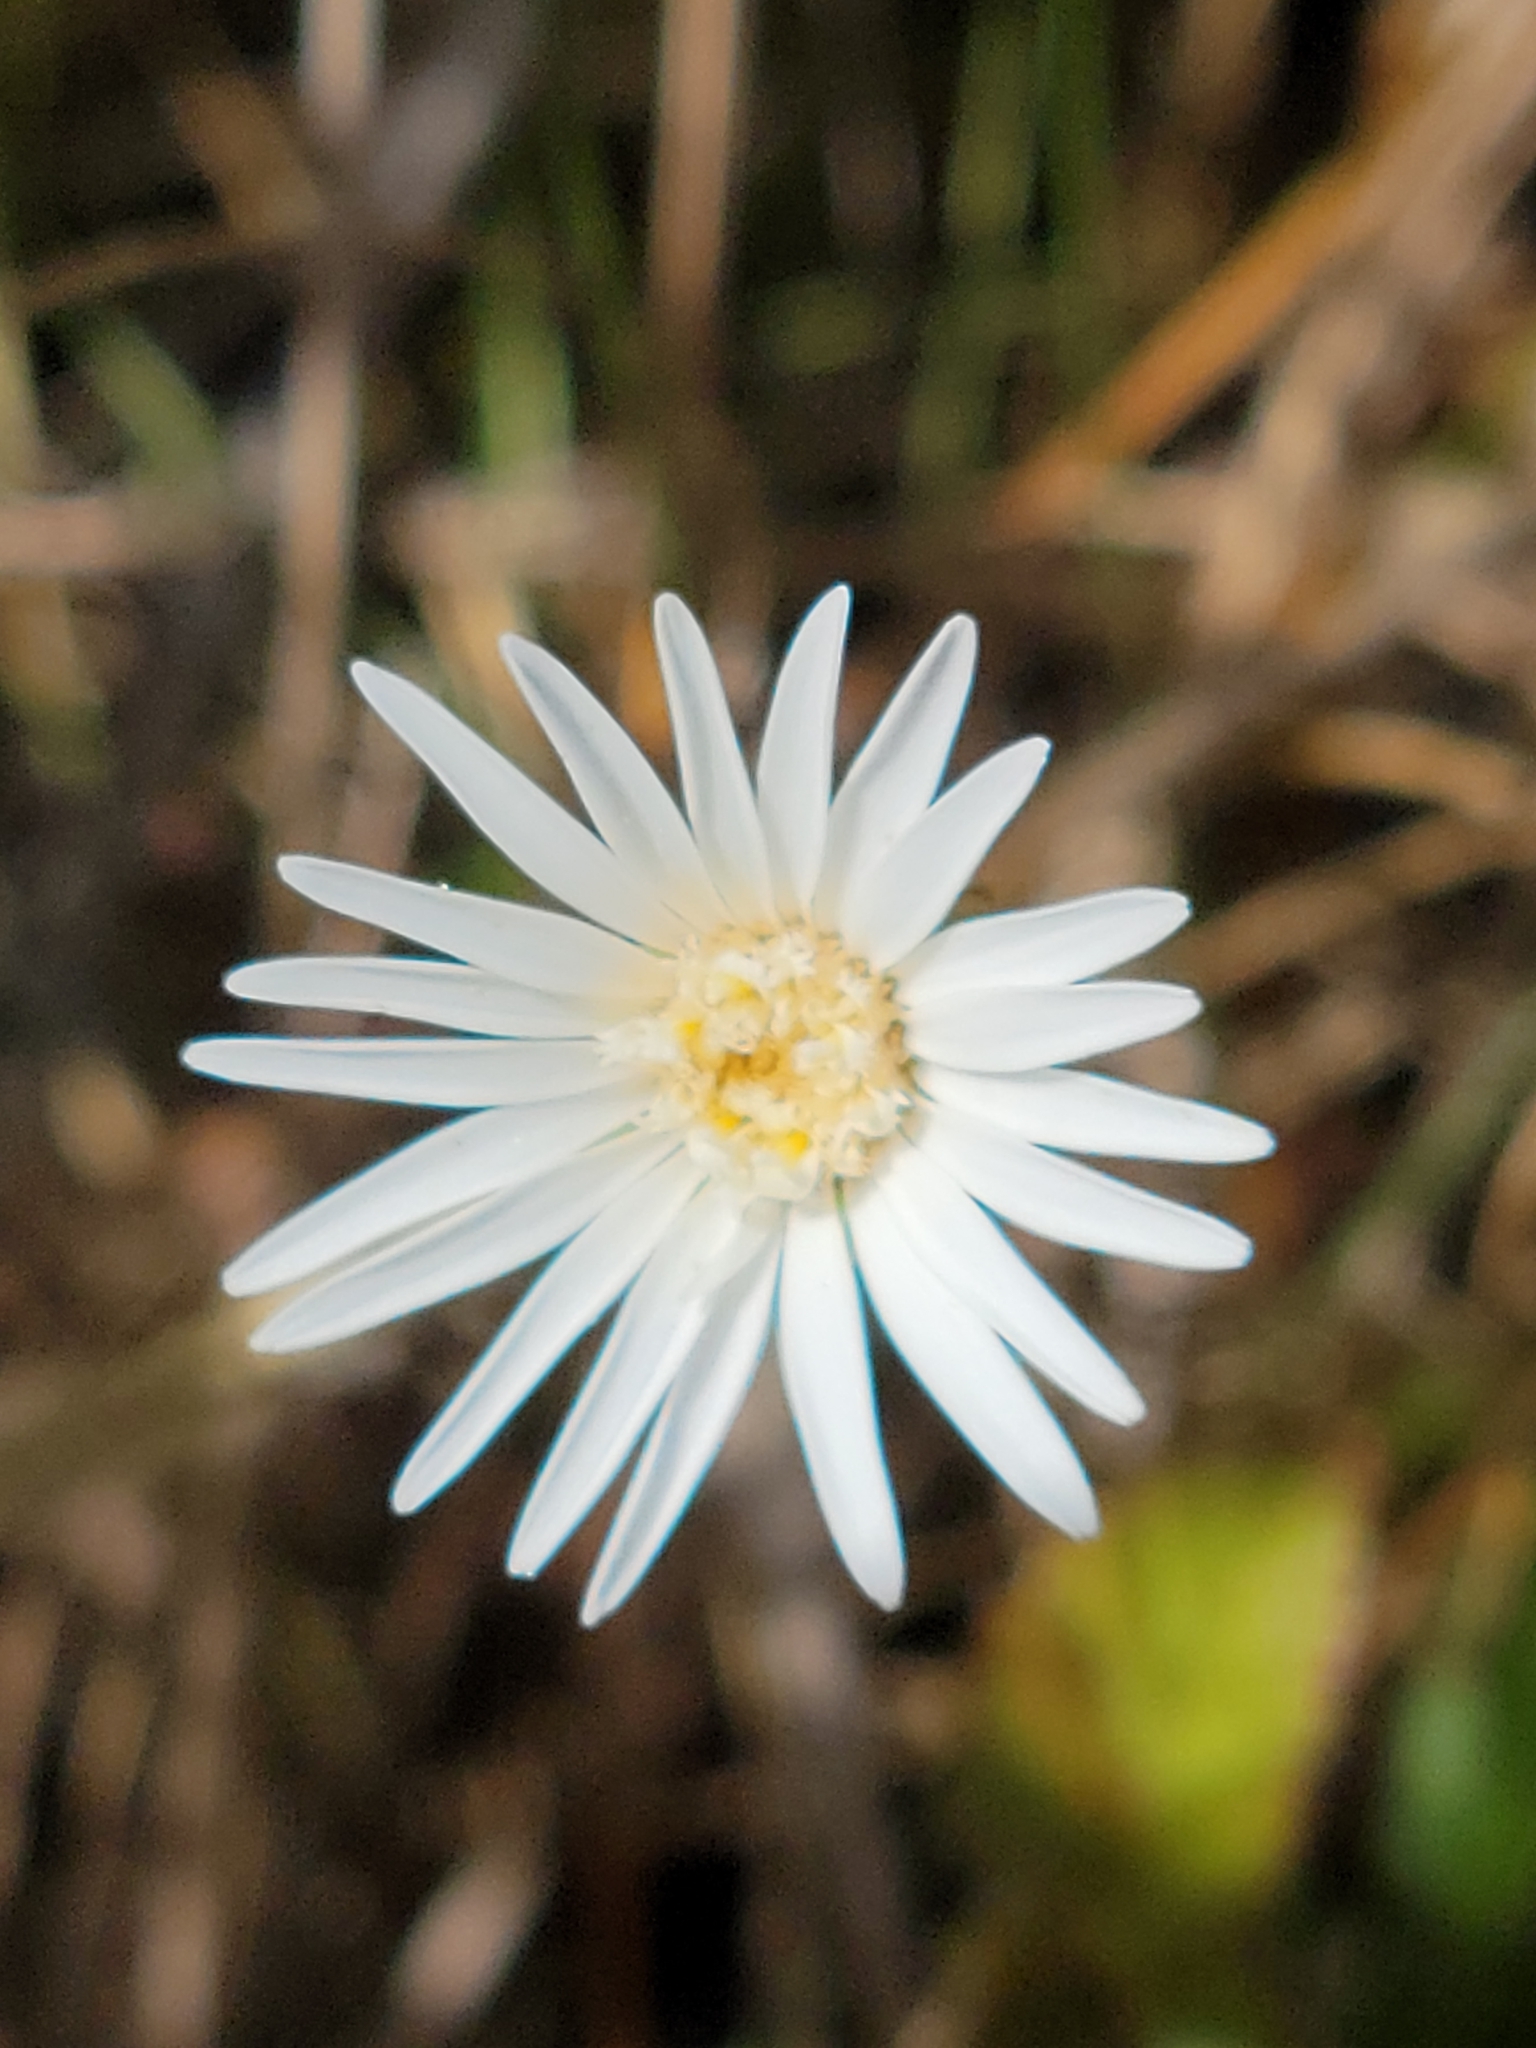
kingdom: Plantae
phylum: Tracheophyta
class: Magnoliopsida
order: Asterales
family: Asteraceae
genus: Chaptalia
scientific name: Chaptalia tomentosa
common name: Woolly sunbonnet
